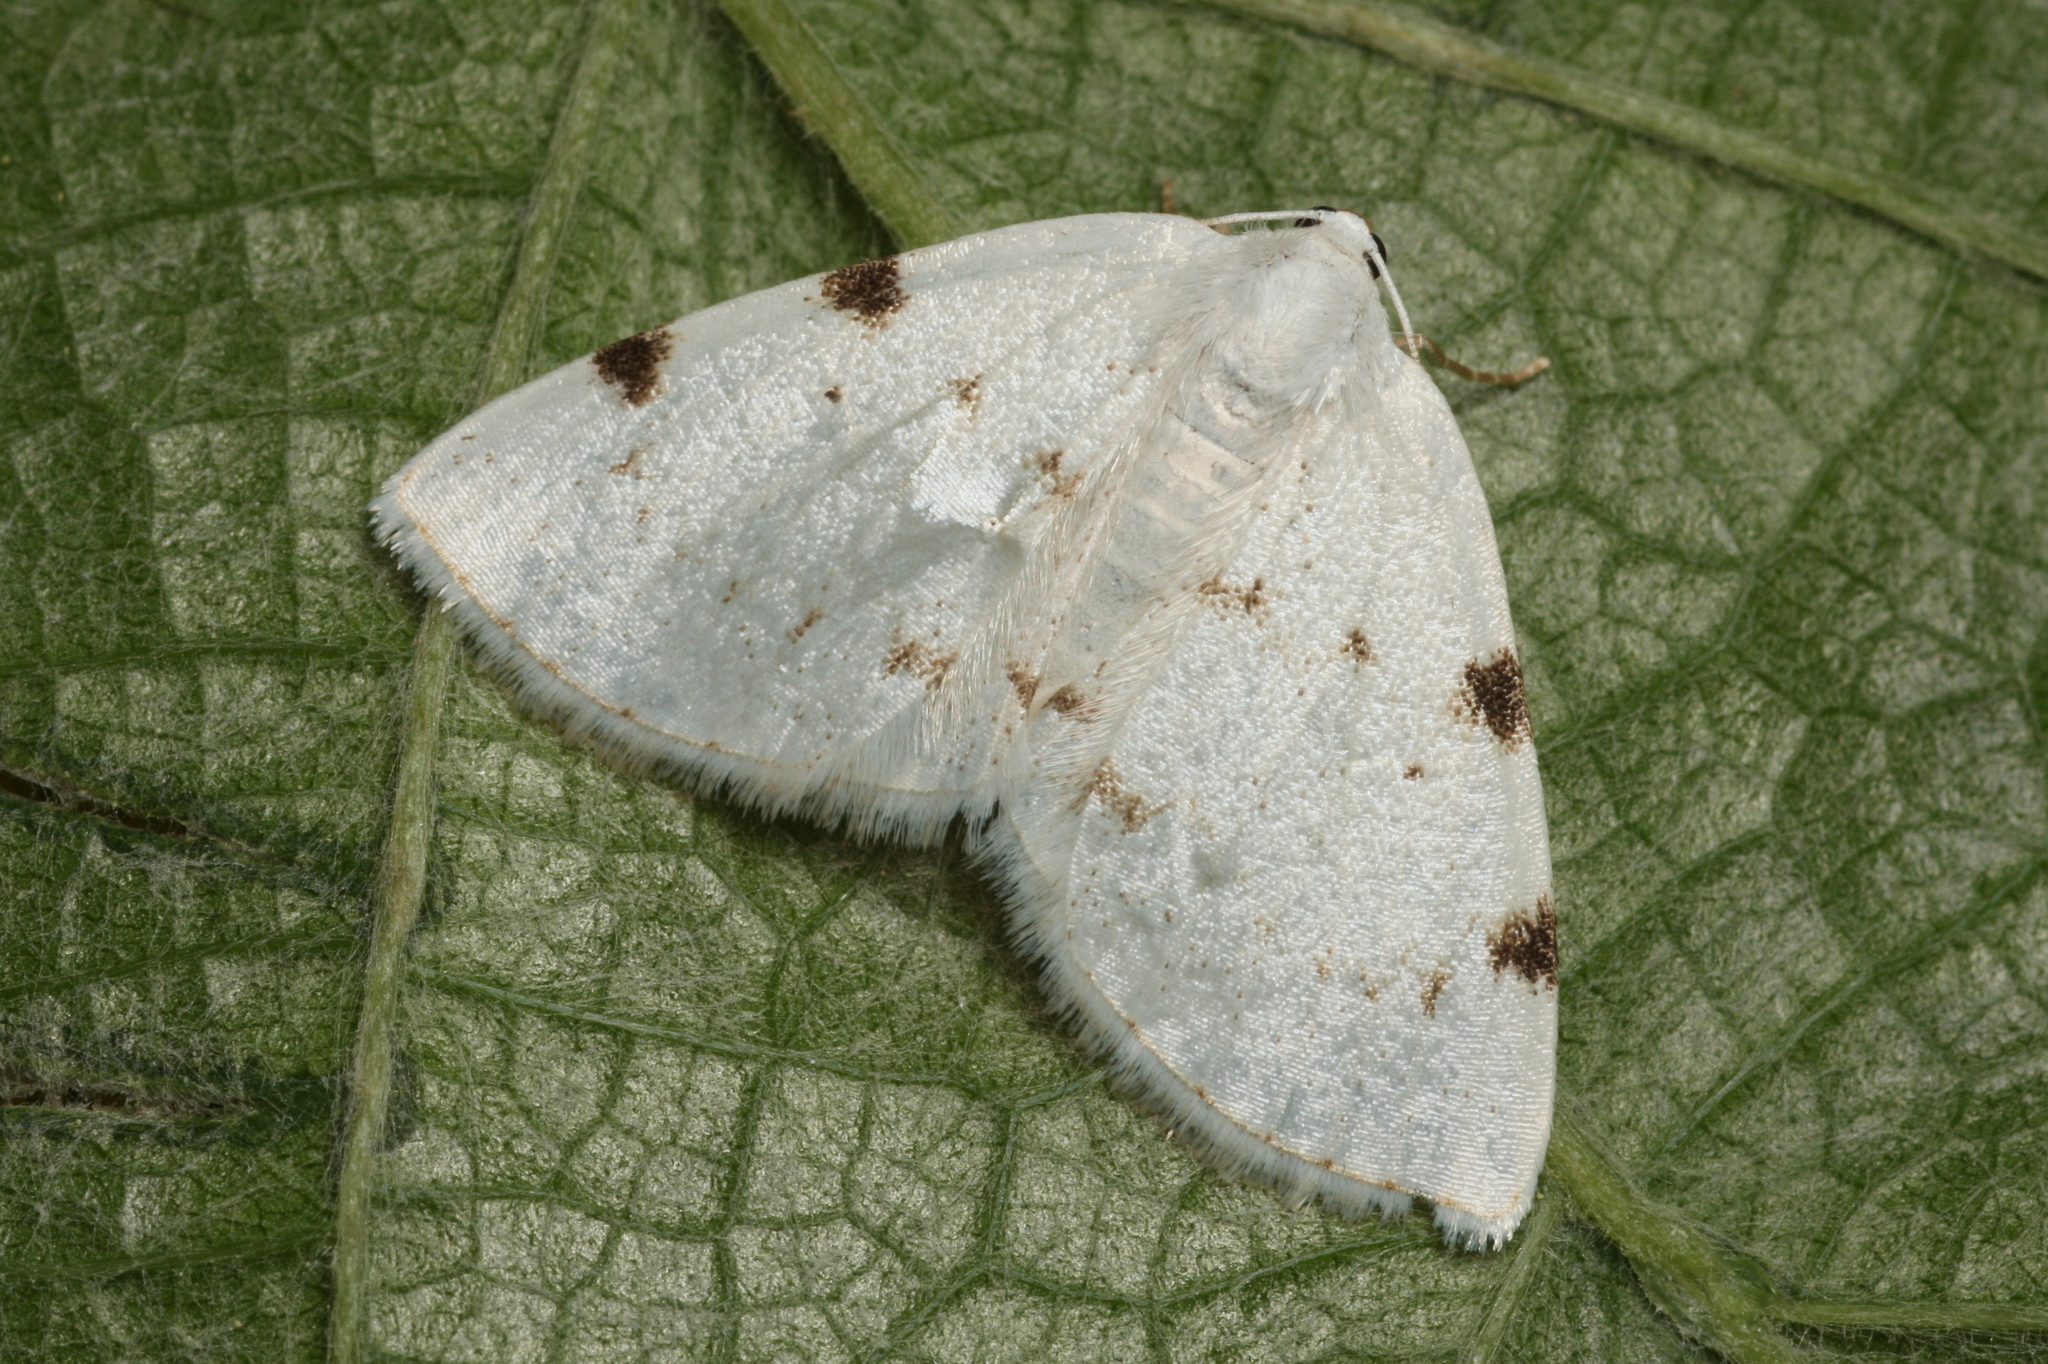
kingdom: Animalia
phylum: Arthropoda
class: Insecta
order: Lepidoptera
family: Geometridae
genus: Lomographa
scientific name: Lomographa bimaculata
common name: White-pinion spotted
